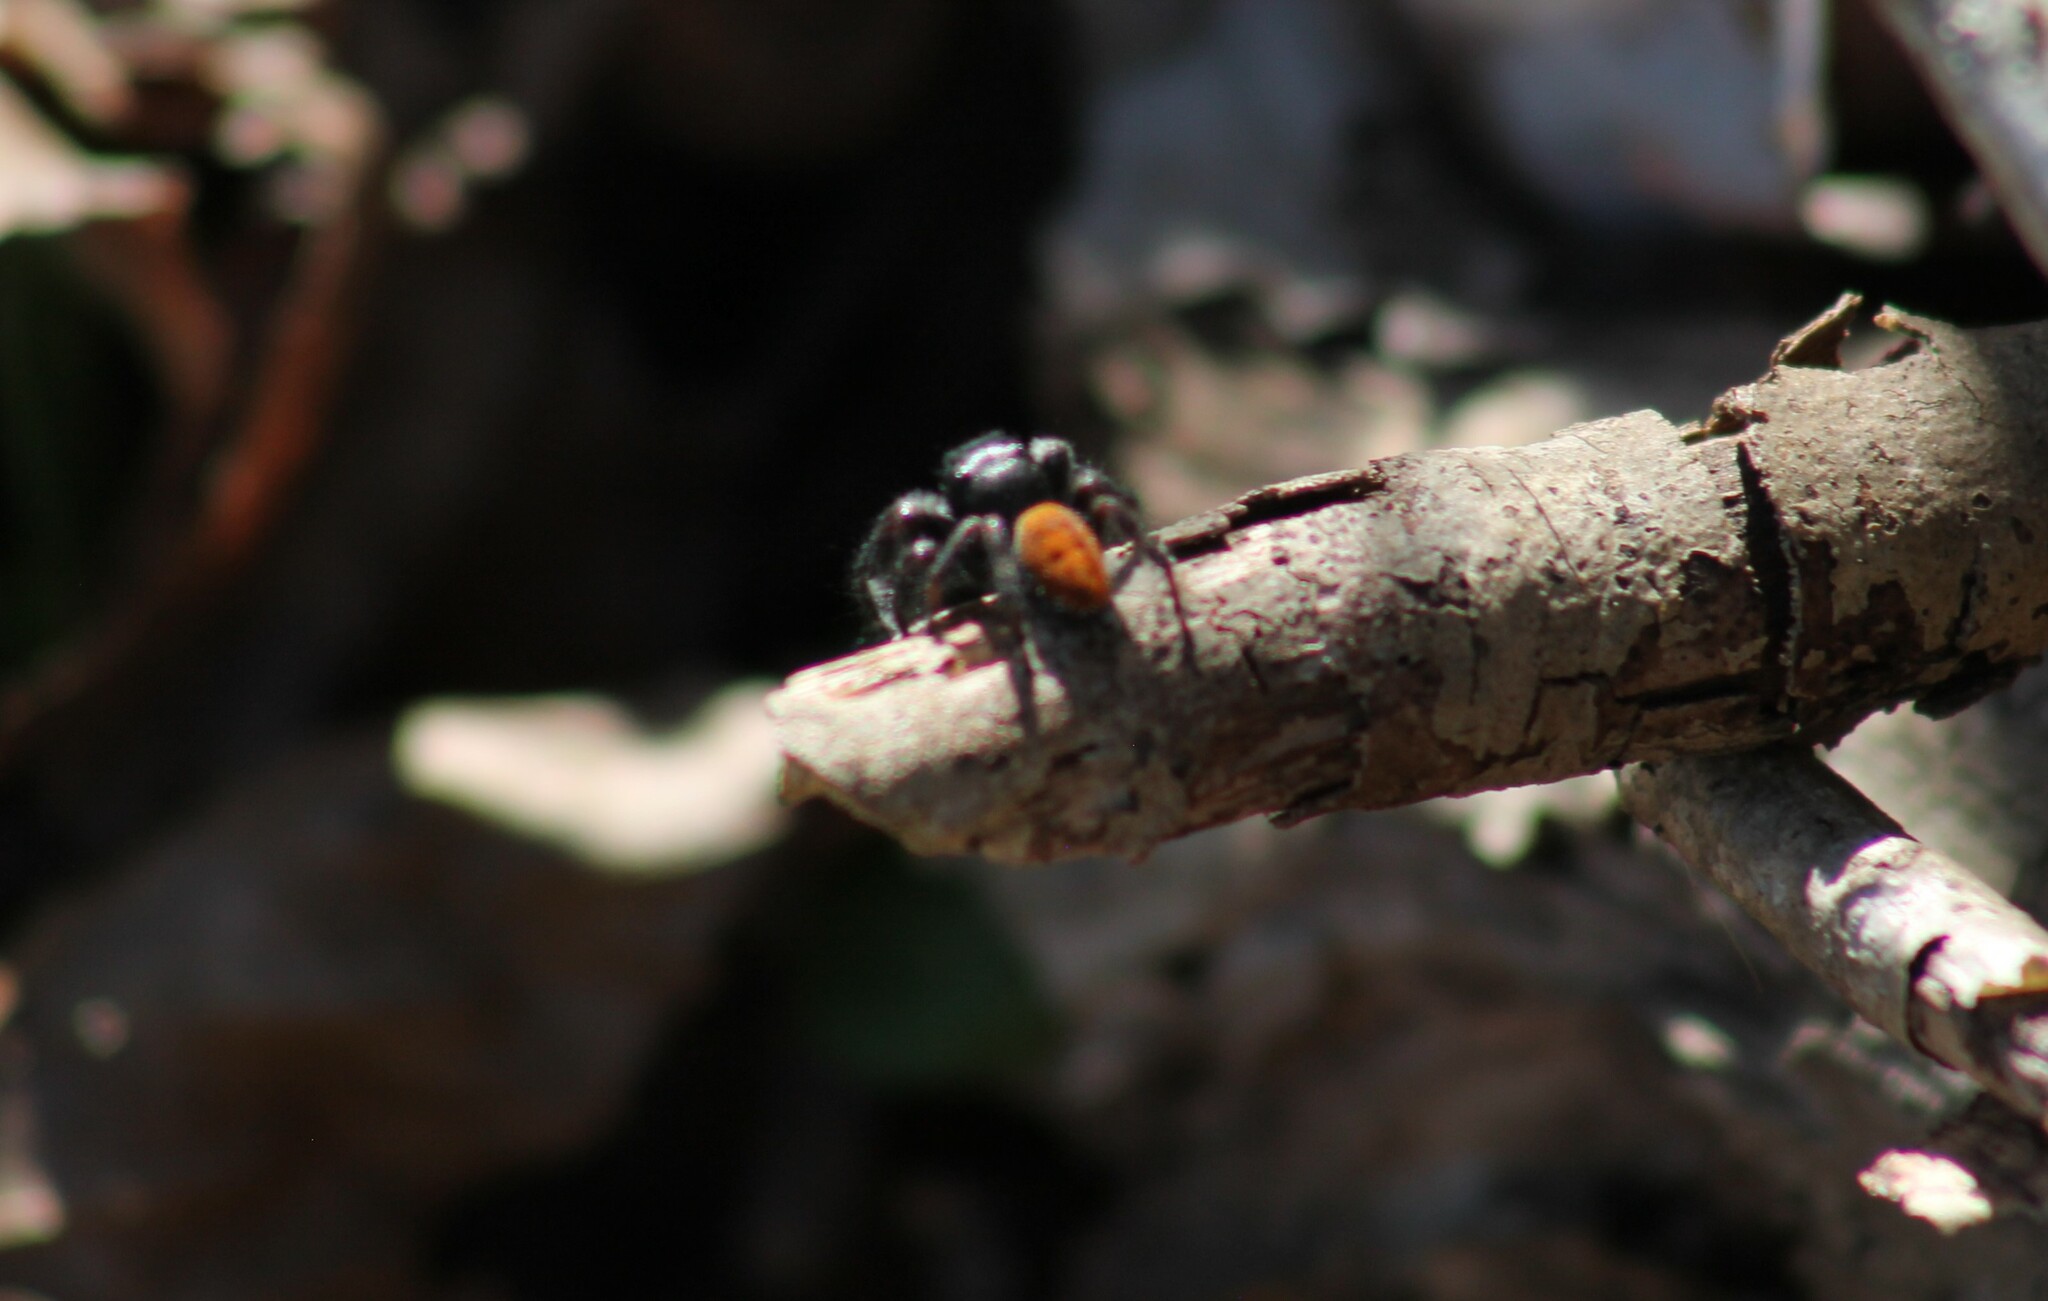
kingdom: Animalia
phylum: Arthropoda
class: Arachnida
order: Araneae
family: Salticidae
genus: Phidippus
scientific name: Phidippus princeps
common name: Grayish jumping spider
